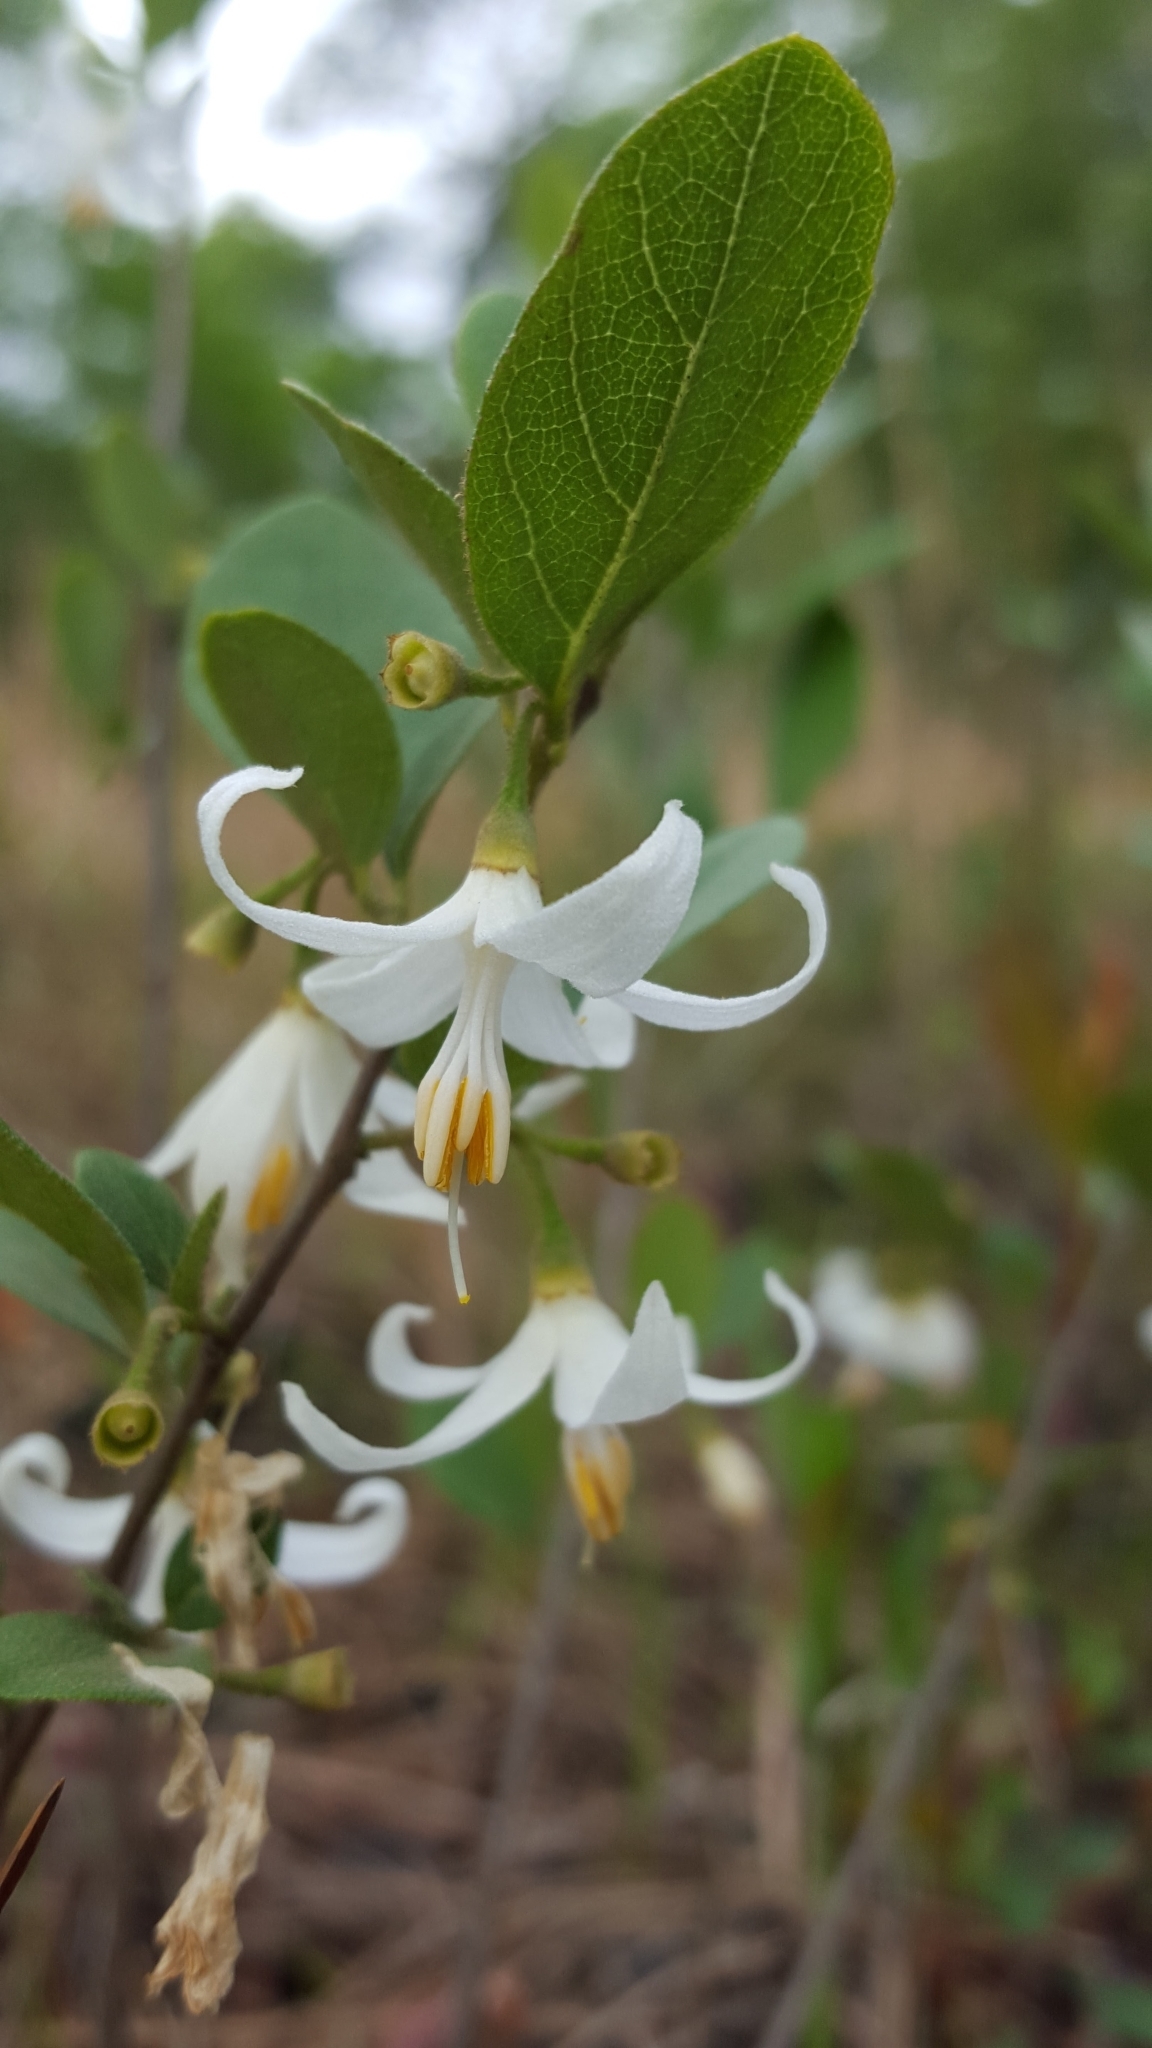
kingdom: Plantae
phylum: Tracheophyta
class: Magnoliopsida
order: Ericales
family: Styracaceae
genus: Styrax
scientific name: Styrax americanus
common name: American snowbell
